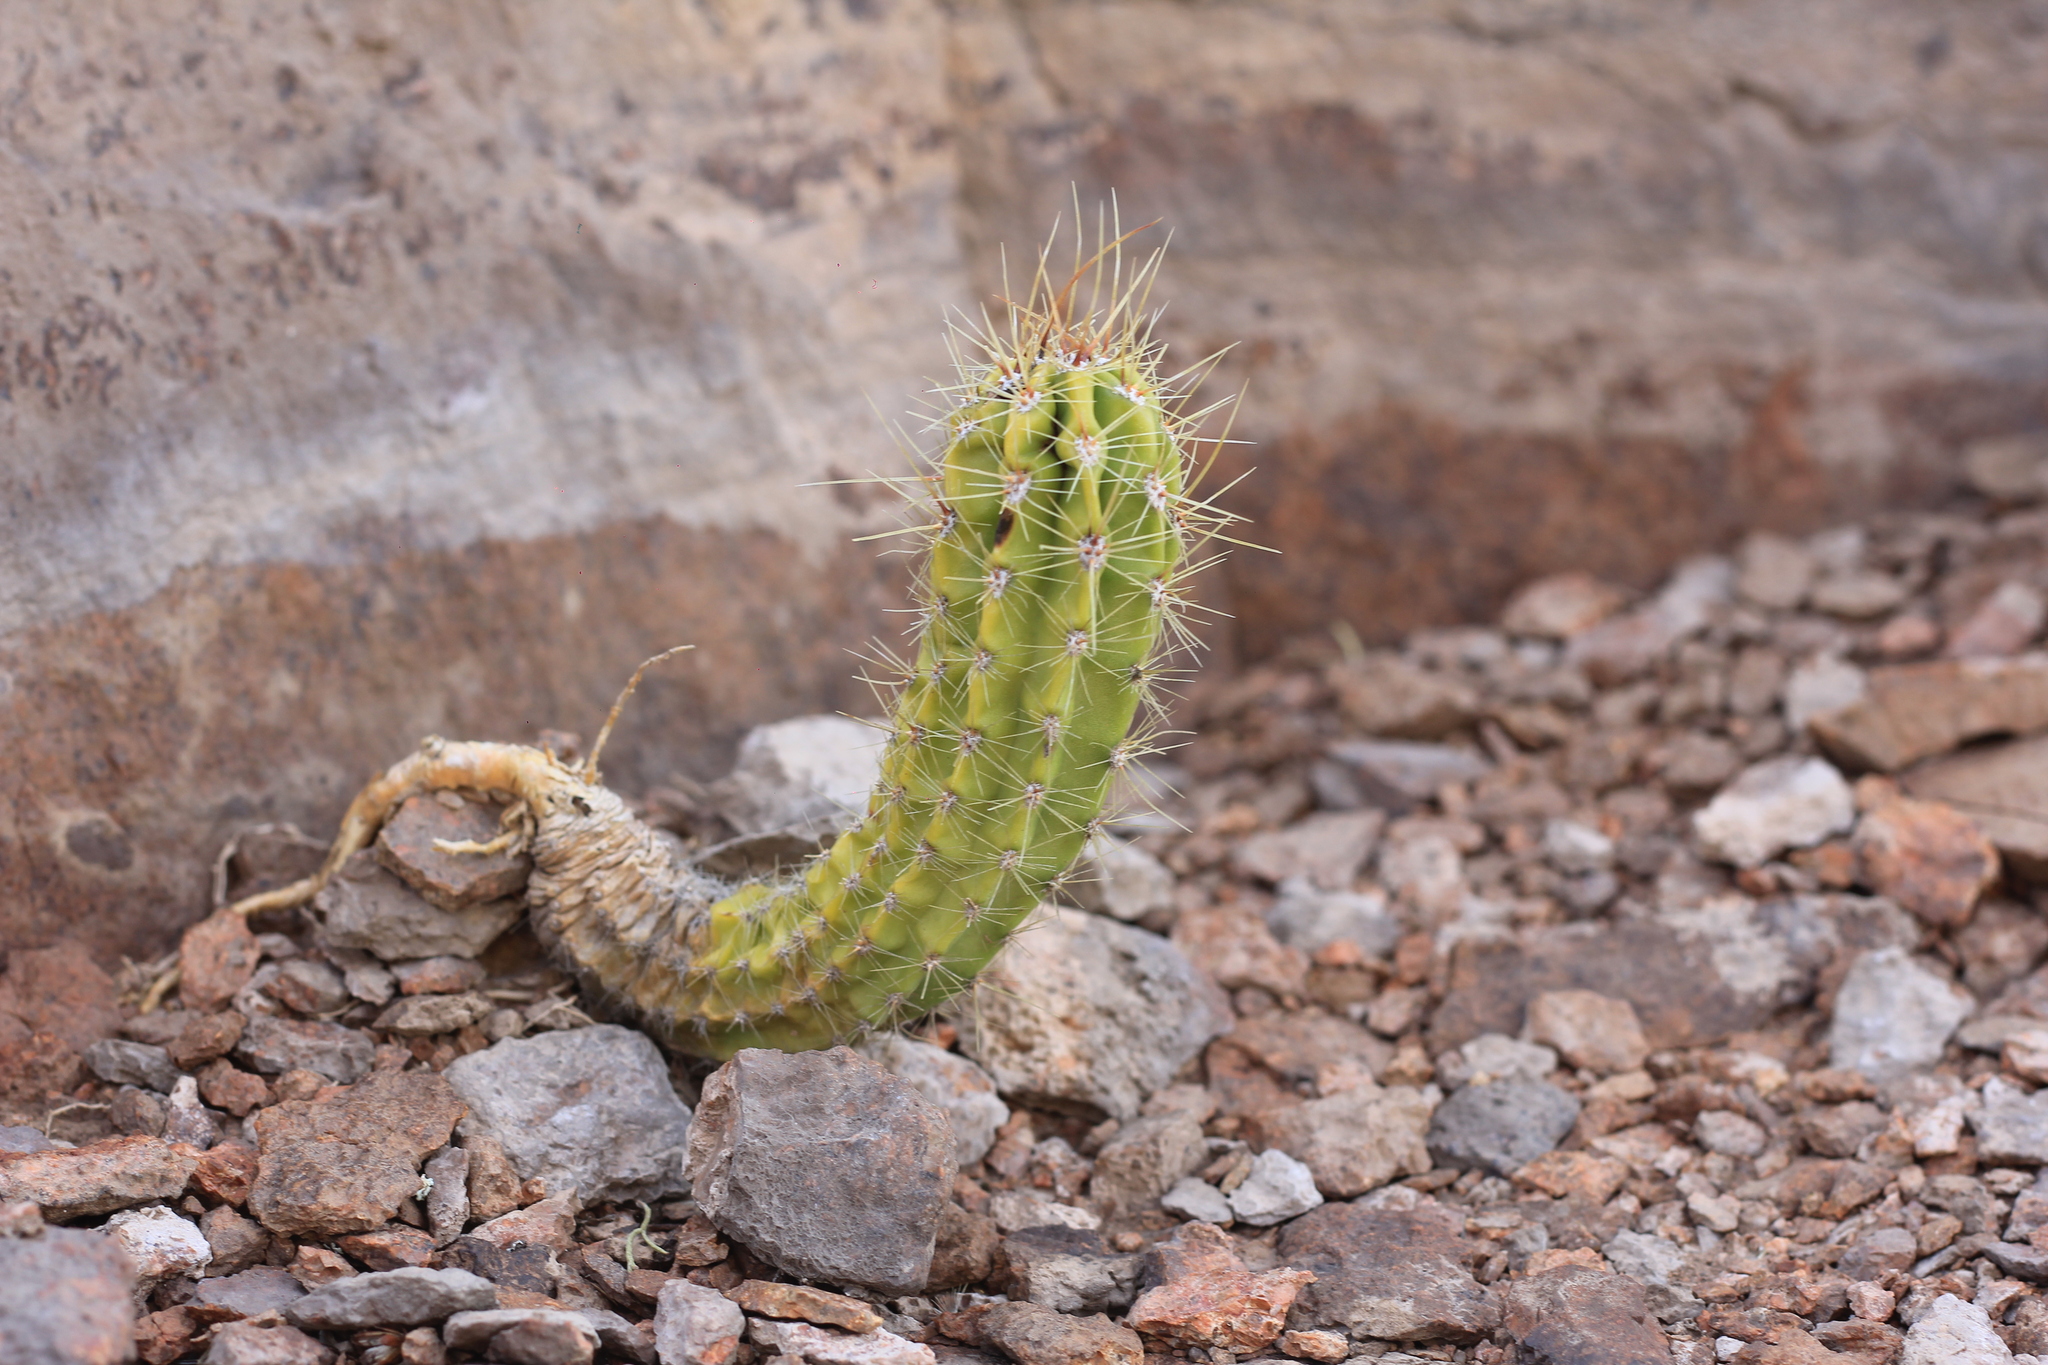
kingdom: Plantae
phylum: Tracheophyta
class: Magnoliopsida
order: Caryophyllales
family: Cactaceae
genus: Soehrensia
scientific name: Soehrensia candicans
